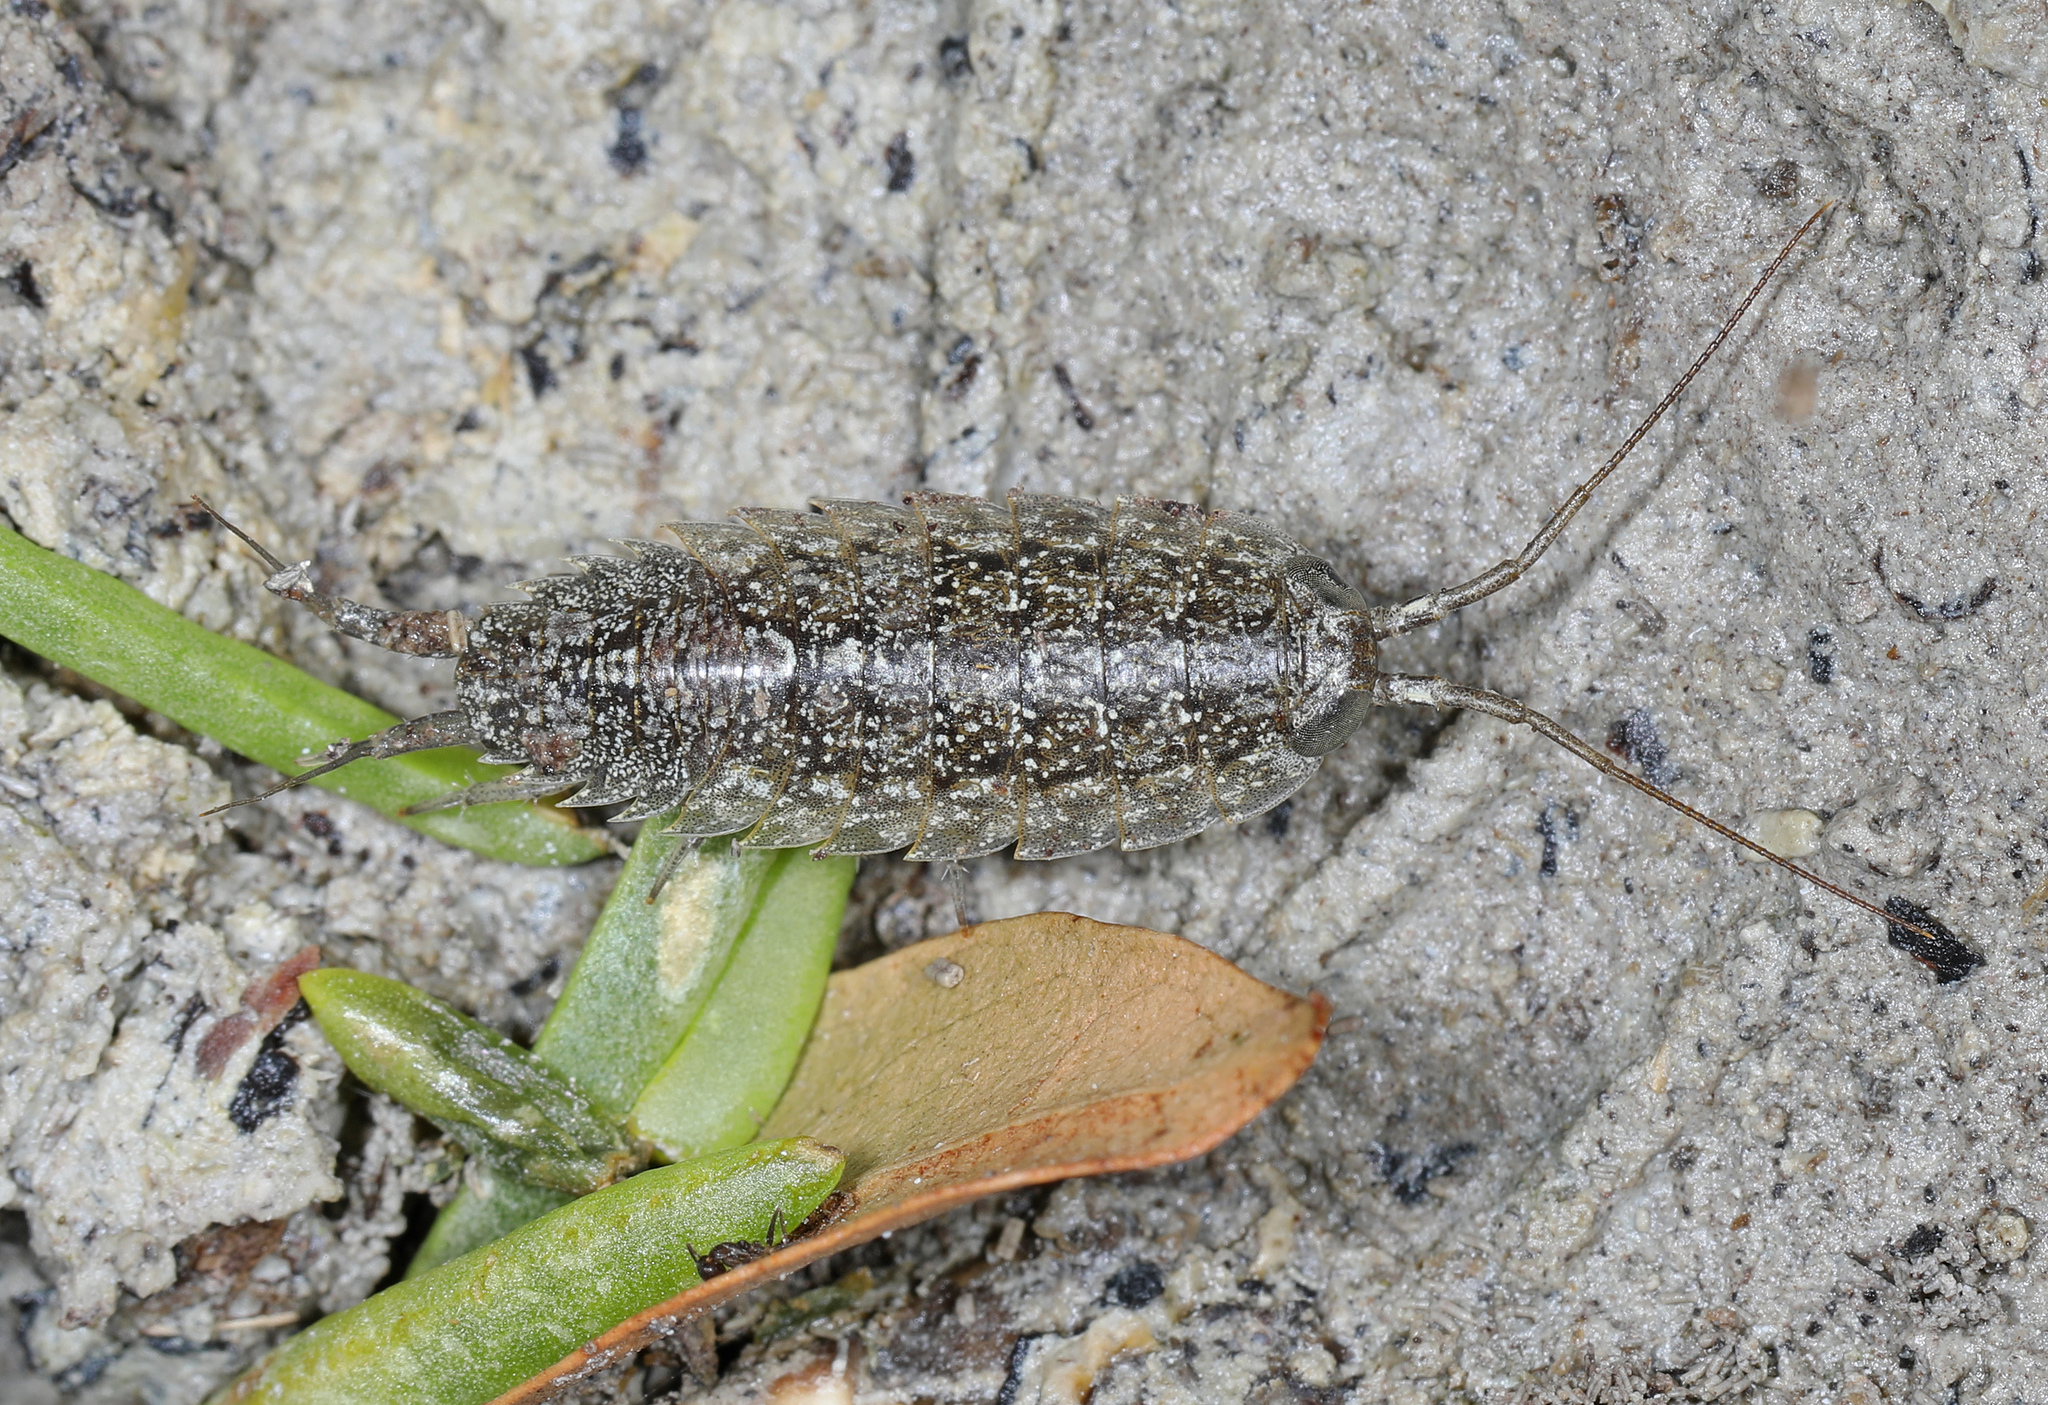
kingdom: Animalia
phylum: Arthropoda
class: Malacostraca
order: Isopoda
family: Ligiidae
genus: Ligia
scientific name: Ligia exotica
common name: Wharf roach
